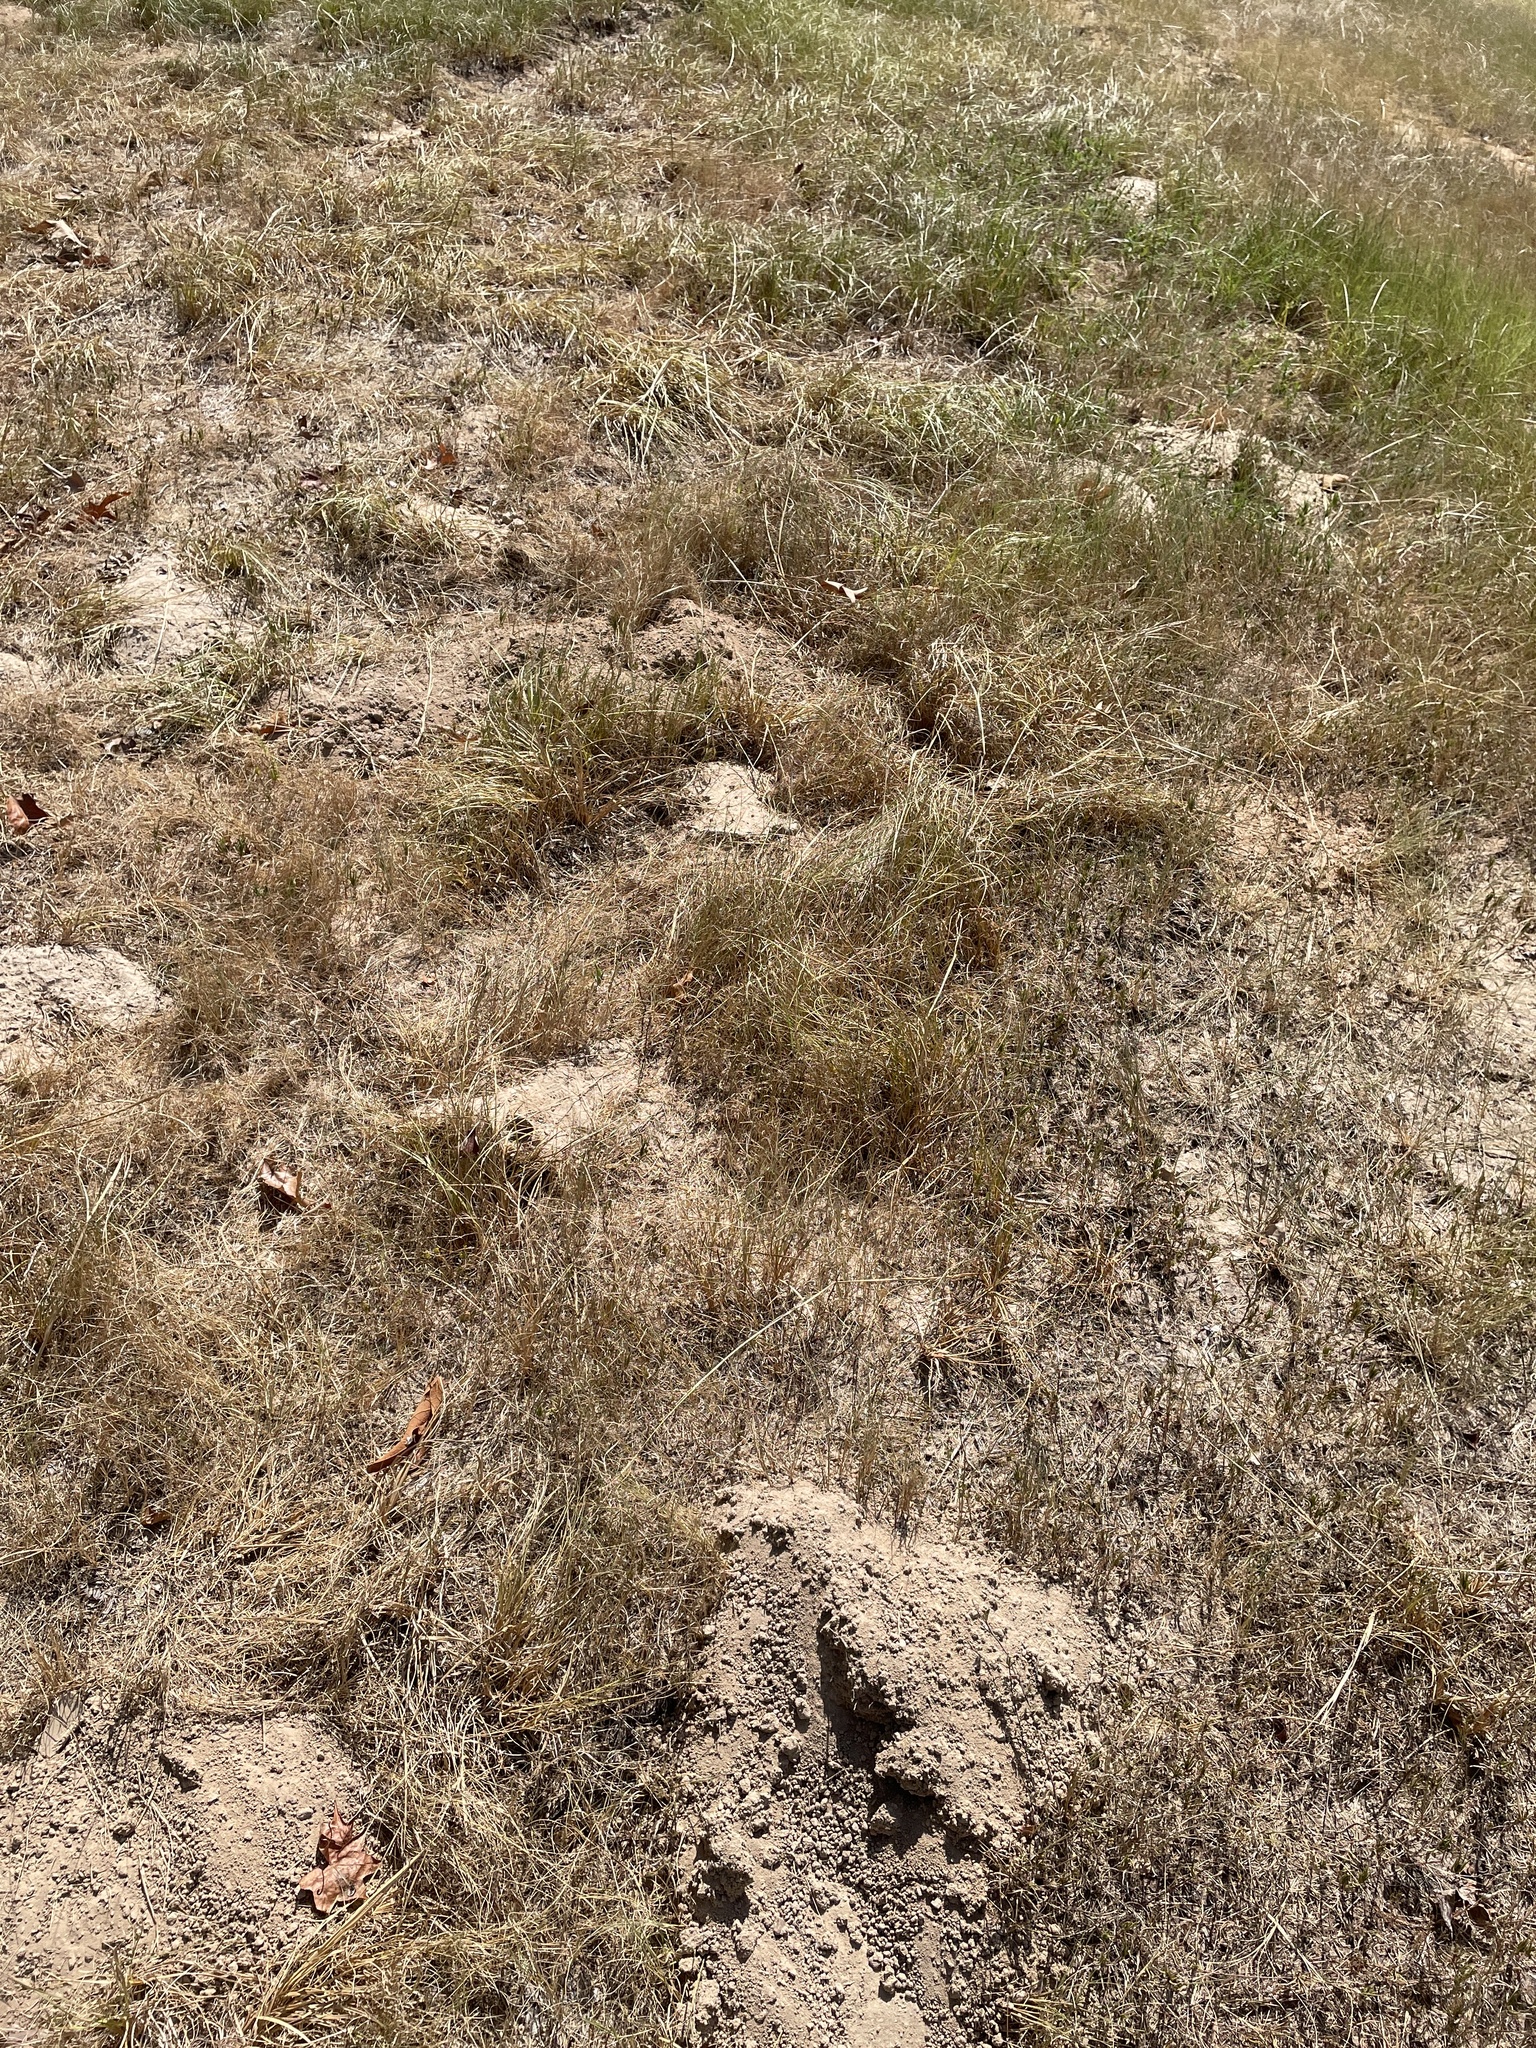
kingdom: Animalia
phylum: Chordata
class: Mammalia
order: Rodentia
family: Geomyidae
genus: Geomys
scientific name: Geomys breviceps
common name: Baird's pocket gopher
